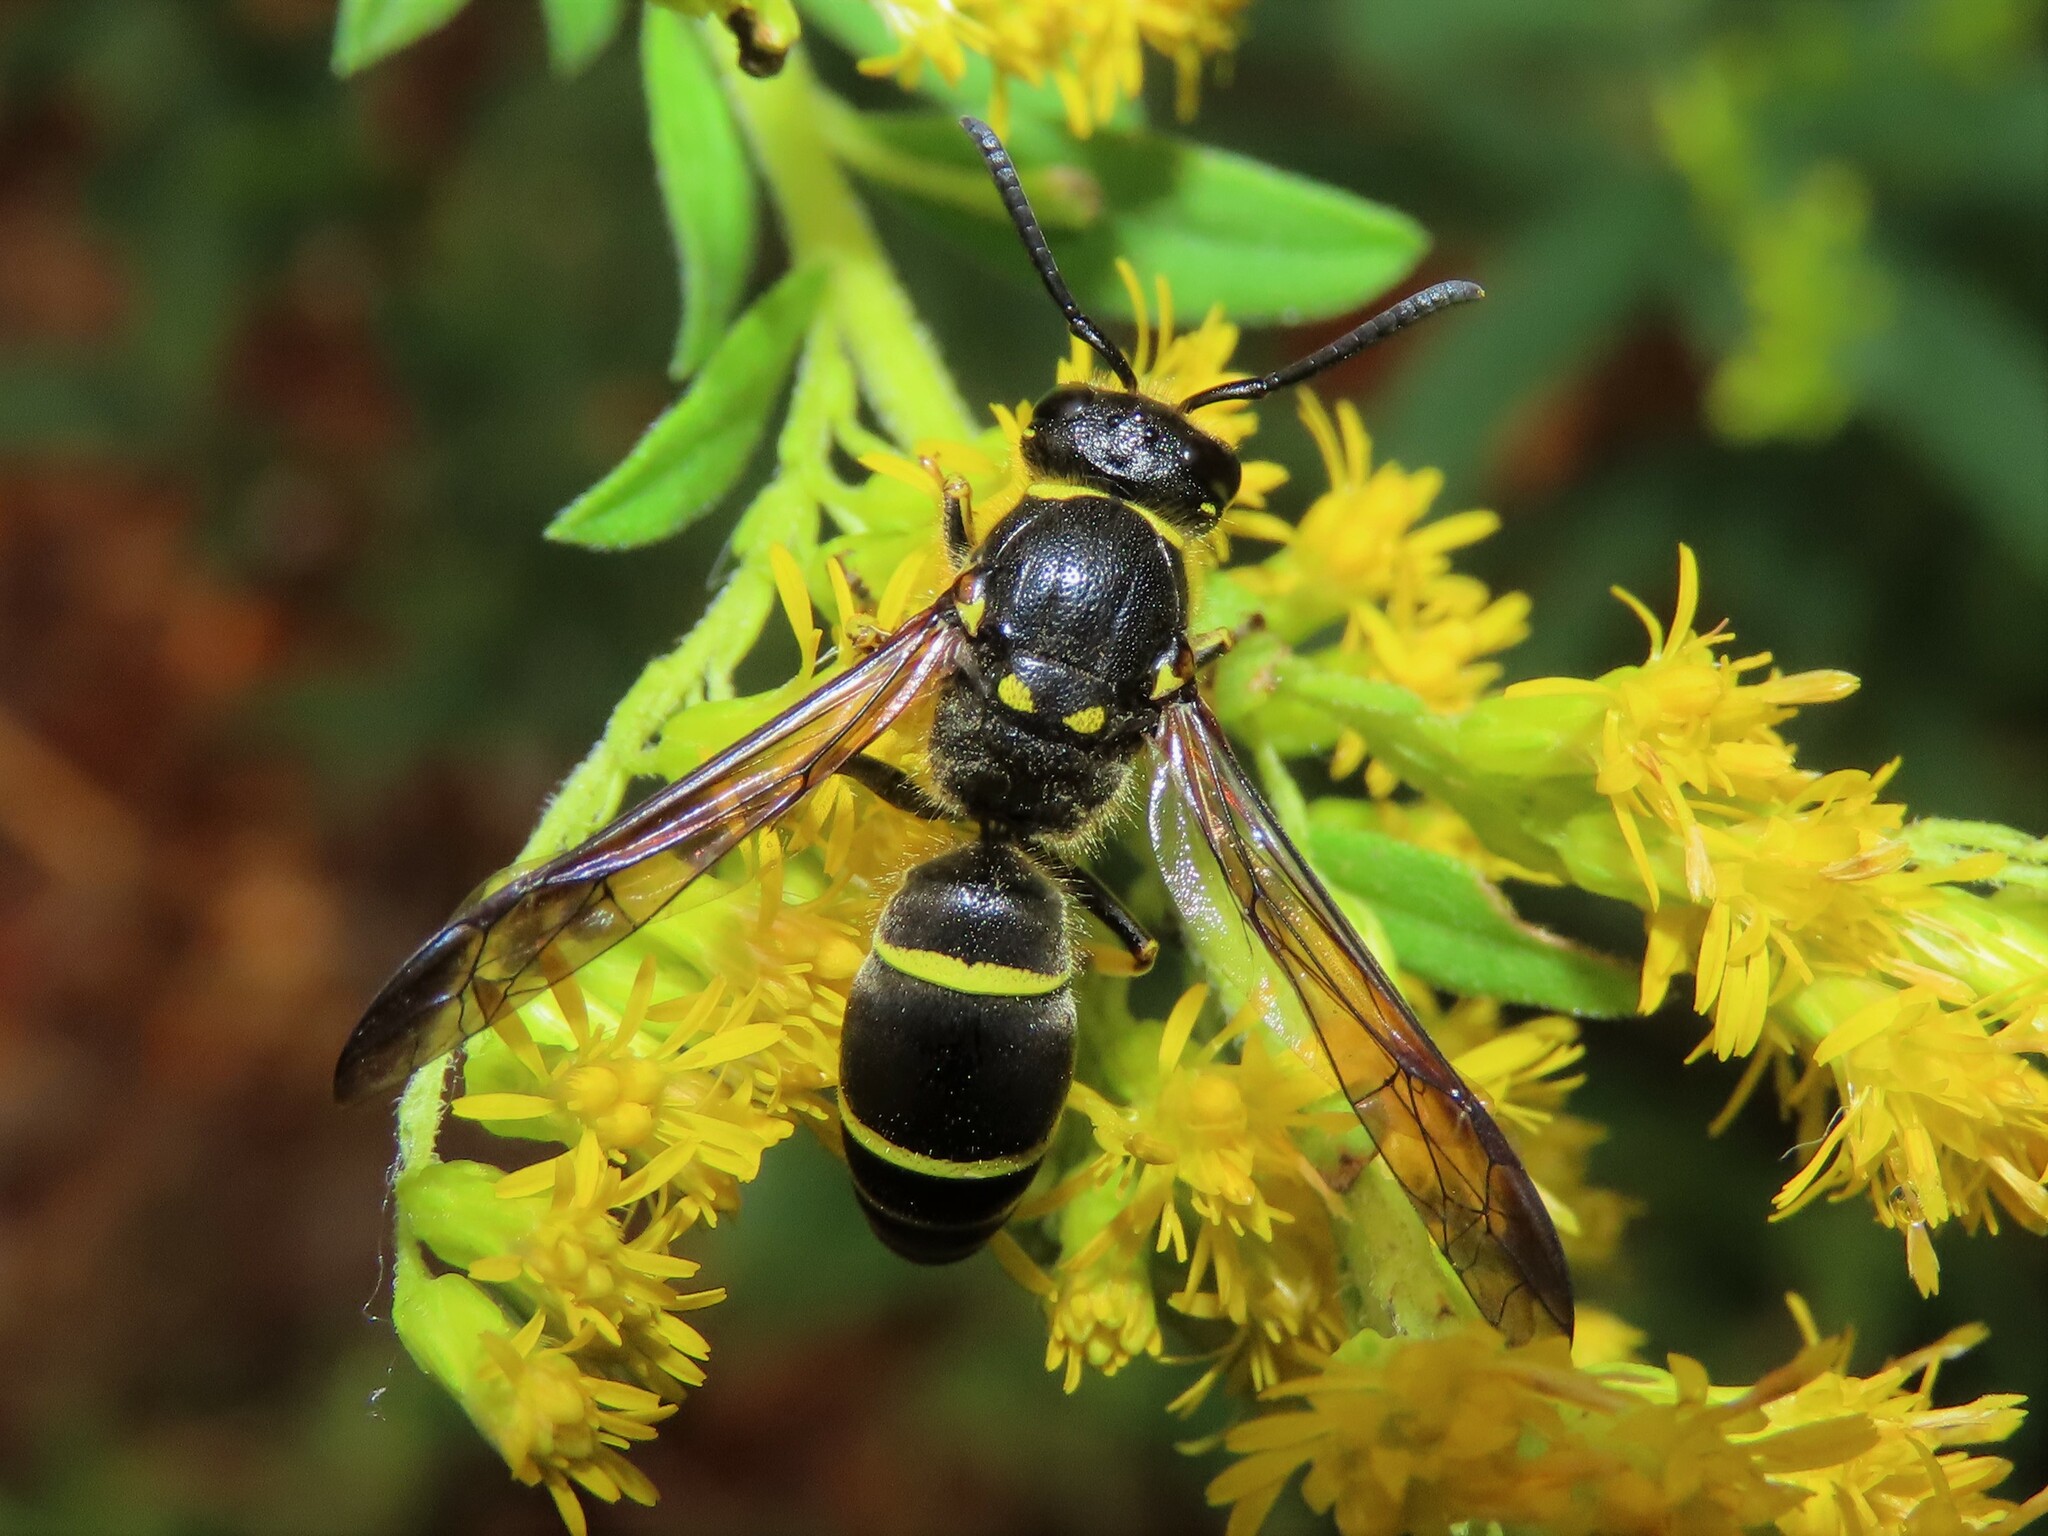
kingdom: Animalia
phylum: Arthropoda
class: Insecta
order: Hymenoptera
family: Vespidae
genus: Ancistrocerus
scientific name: Ancistrocerus
